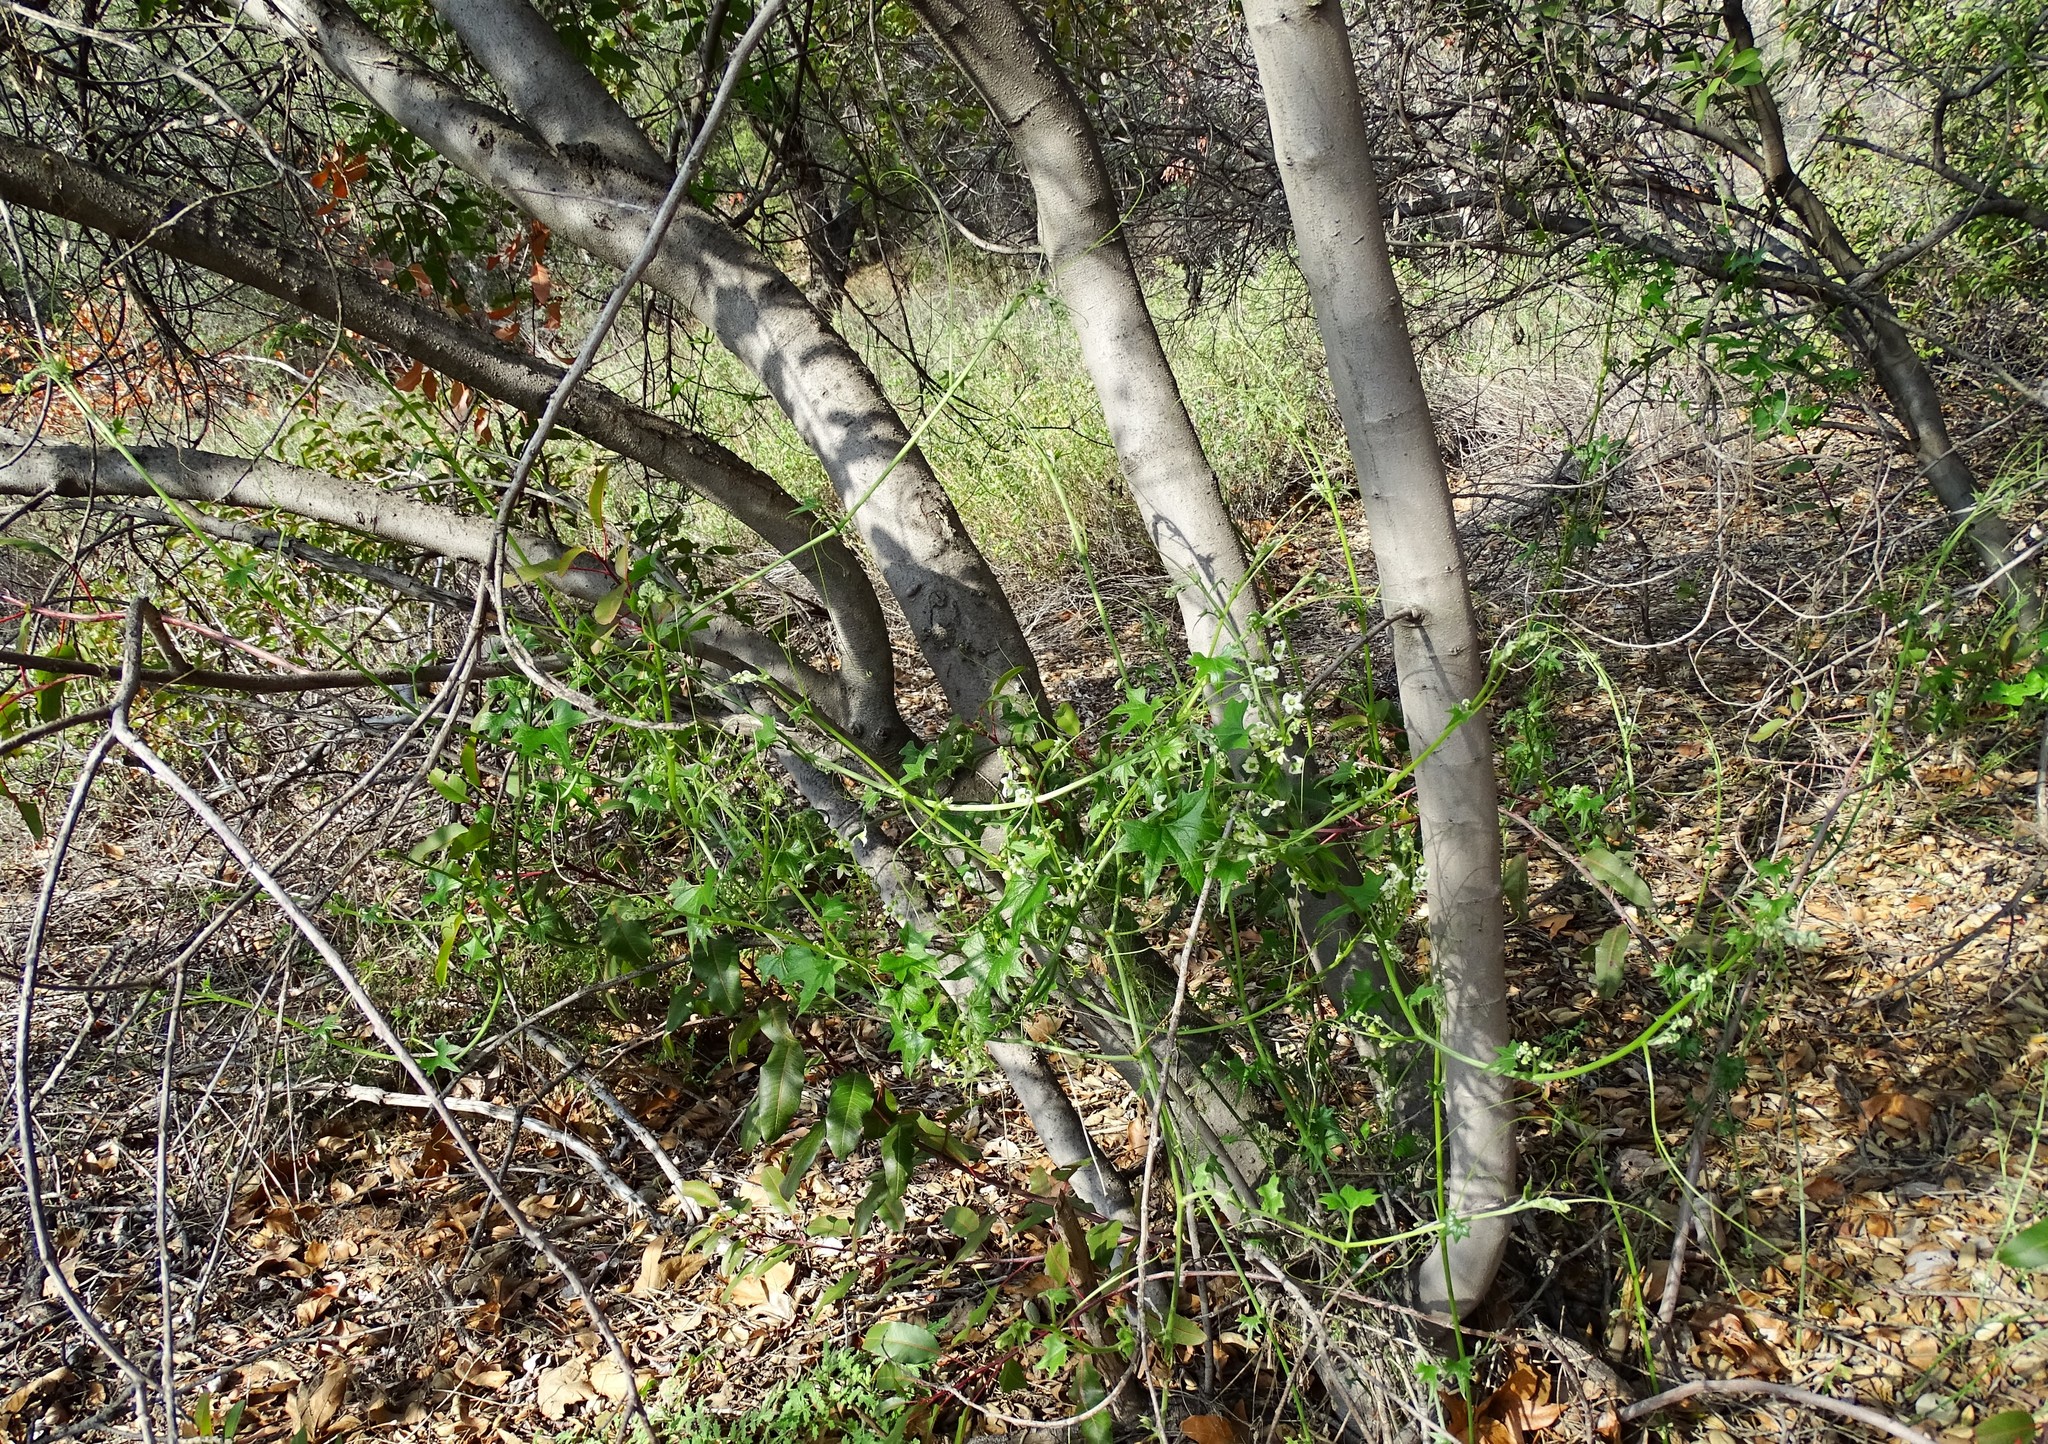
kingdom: Plantae
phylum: Tracheophyta
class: Magnoliopsida
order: Cucurbitales
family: Cucurbitaceae
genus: Marah
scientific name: Marah macrocarpa
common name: Cucamonga manroot
